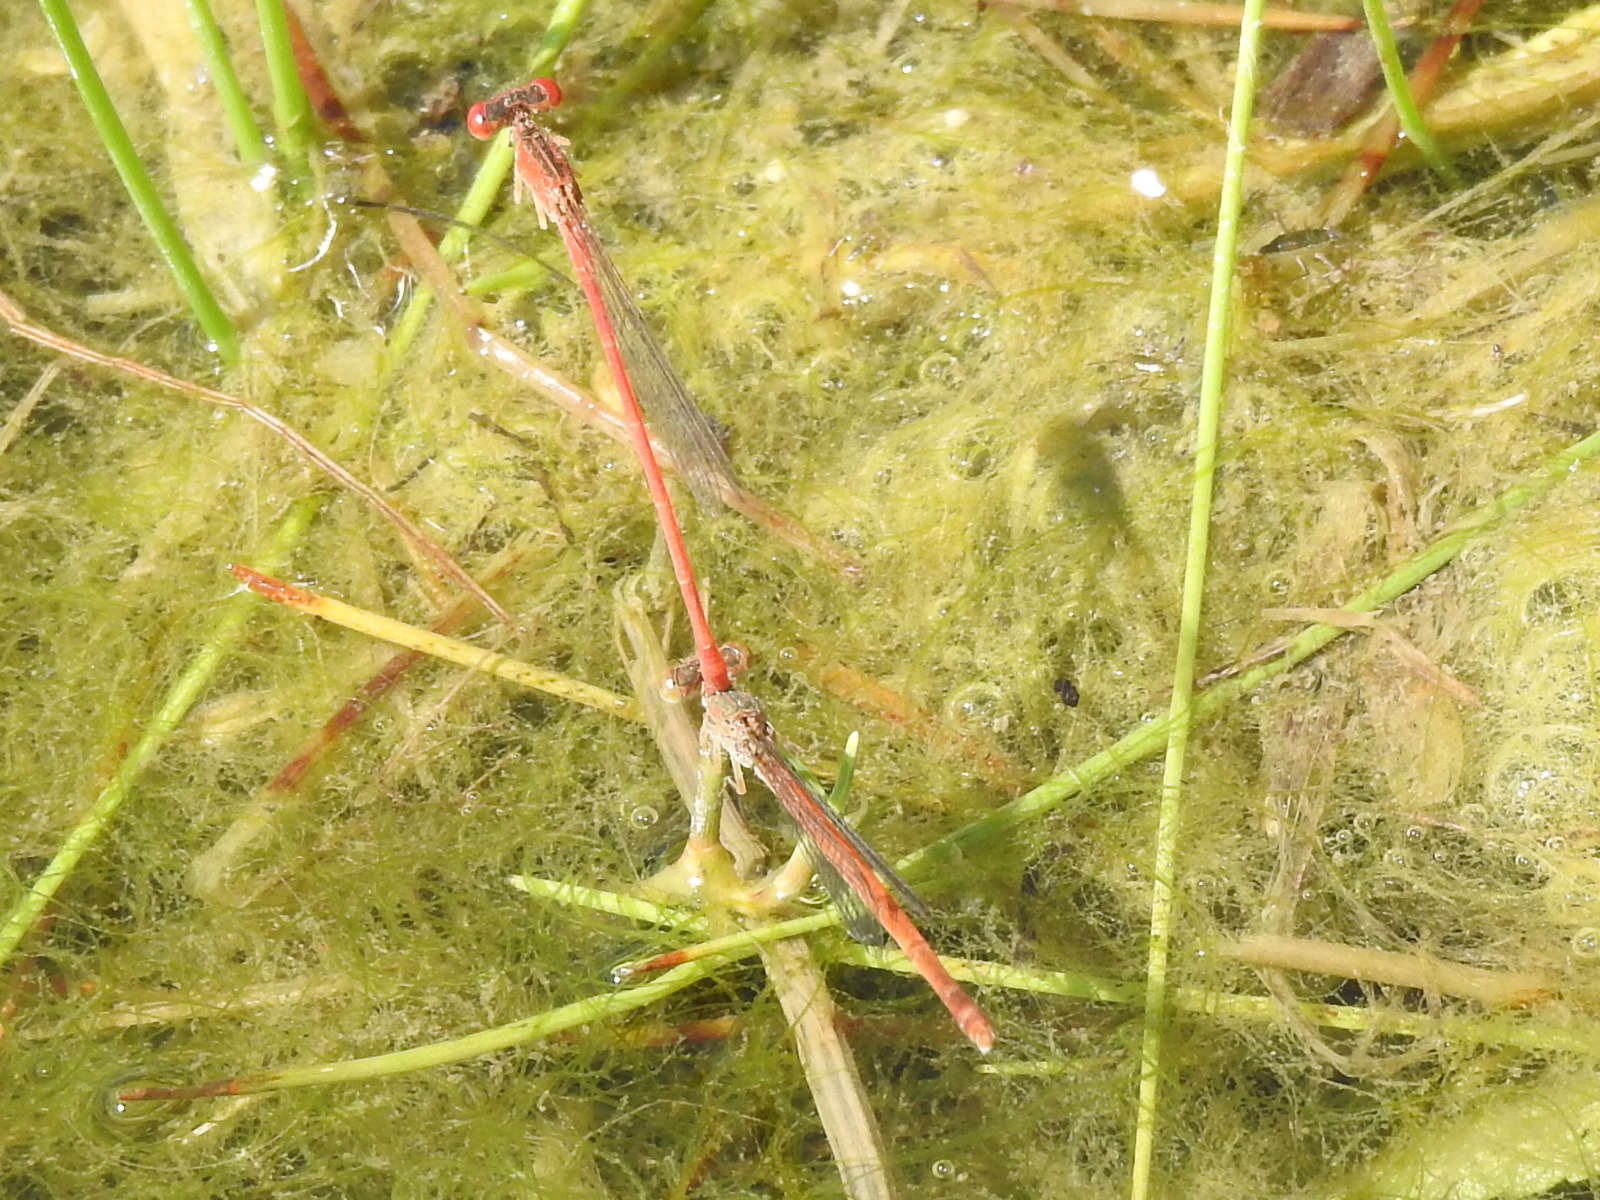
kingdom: Animalia
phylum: Arthropoda
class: Insecta
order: Odonata
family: Coenagrionidae
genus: Telebasis
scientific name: Telebasis salva
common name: Desert firetail
